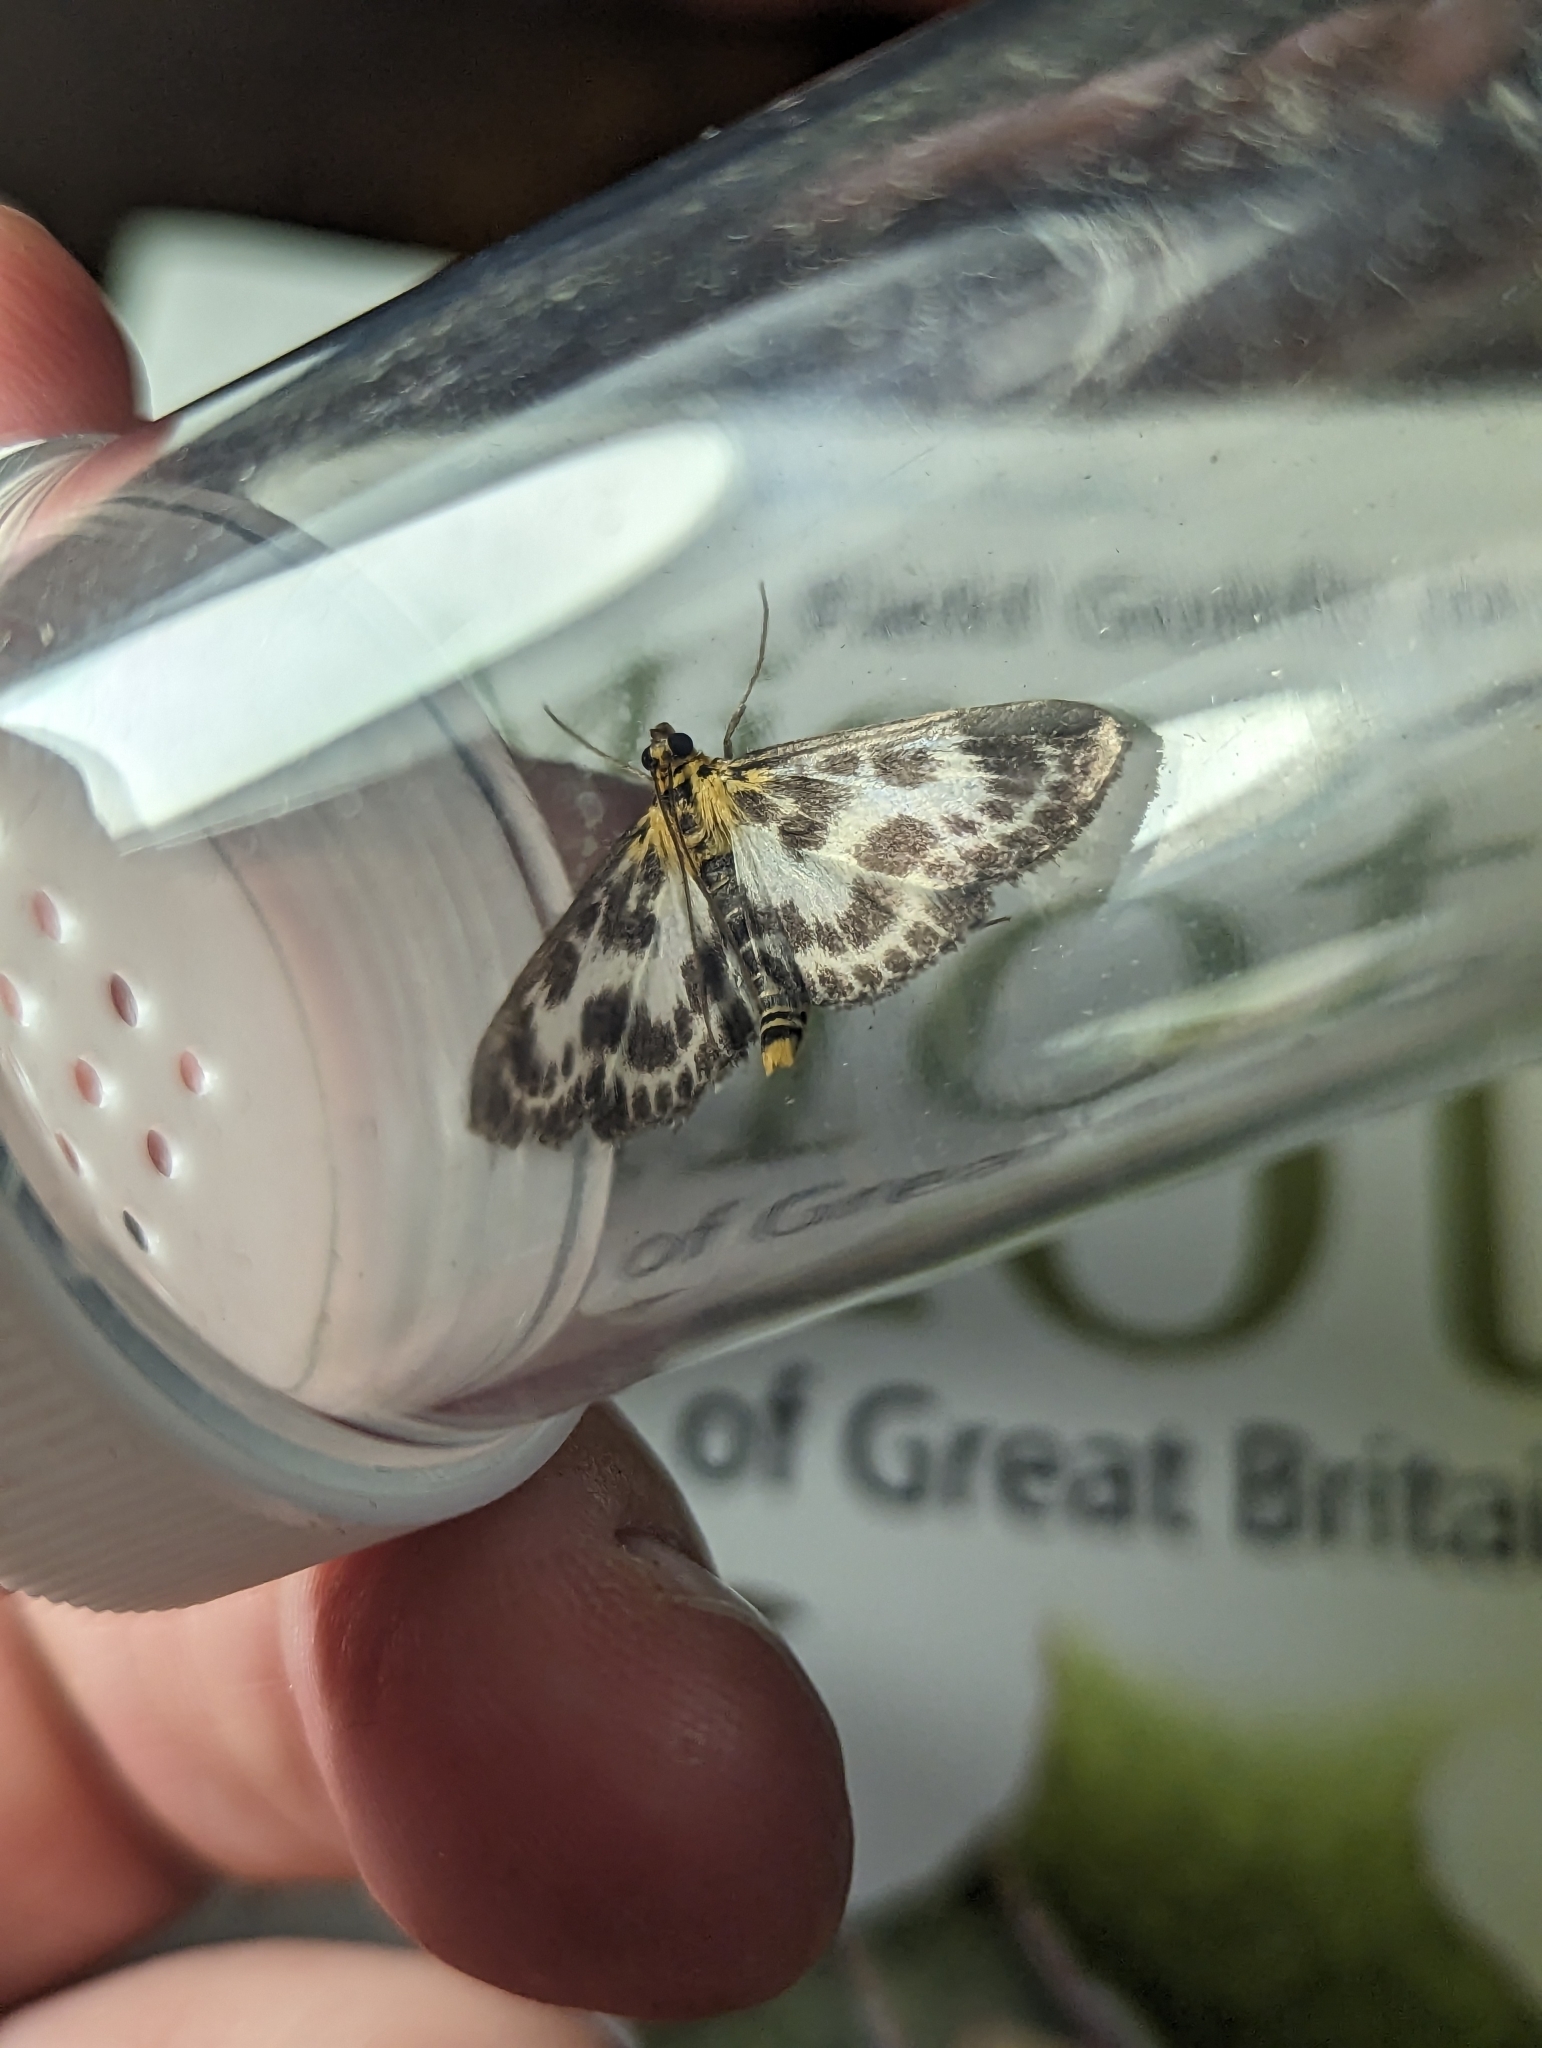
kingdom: Animalia
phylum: Arthropoda
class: Insecta
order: Lepidoptera
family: Crambidae
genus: Anania
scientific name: Anania hortulata
